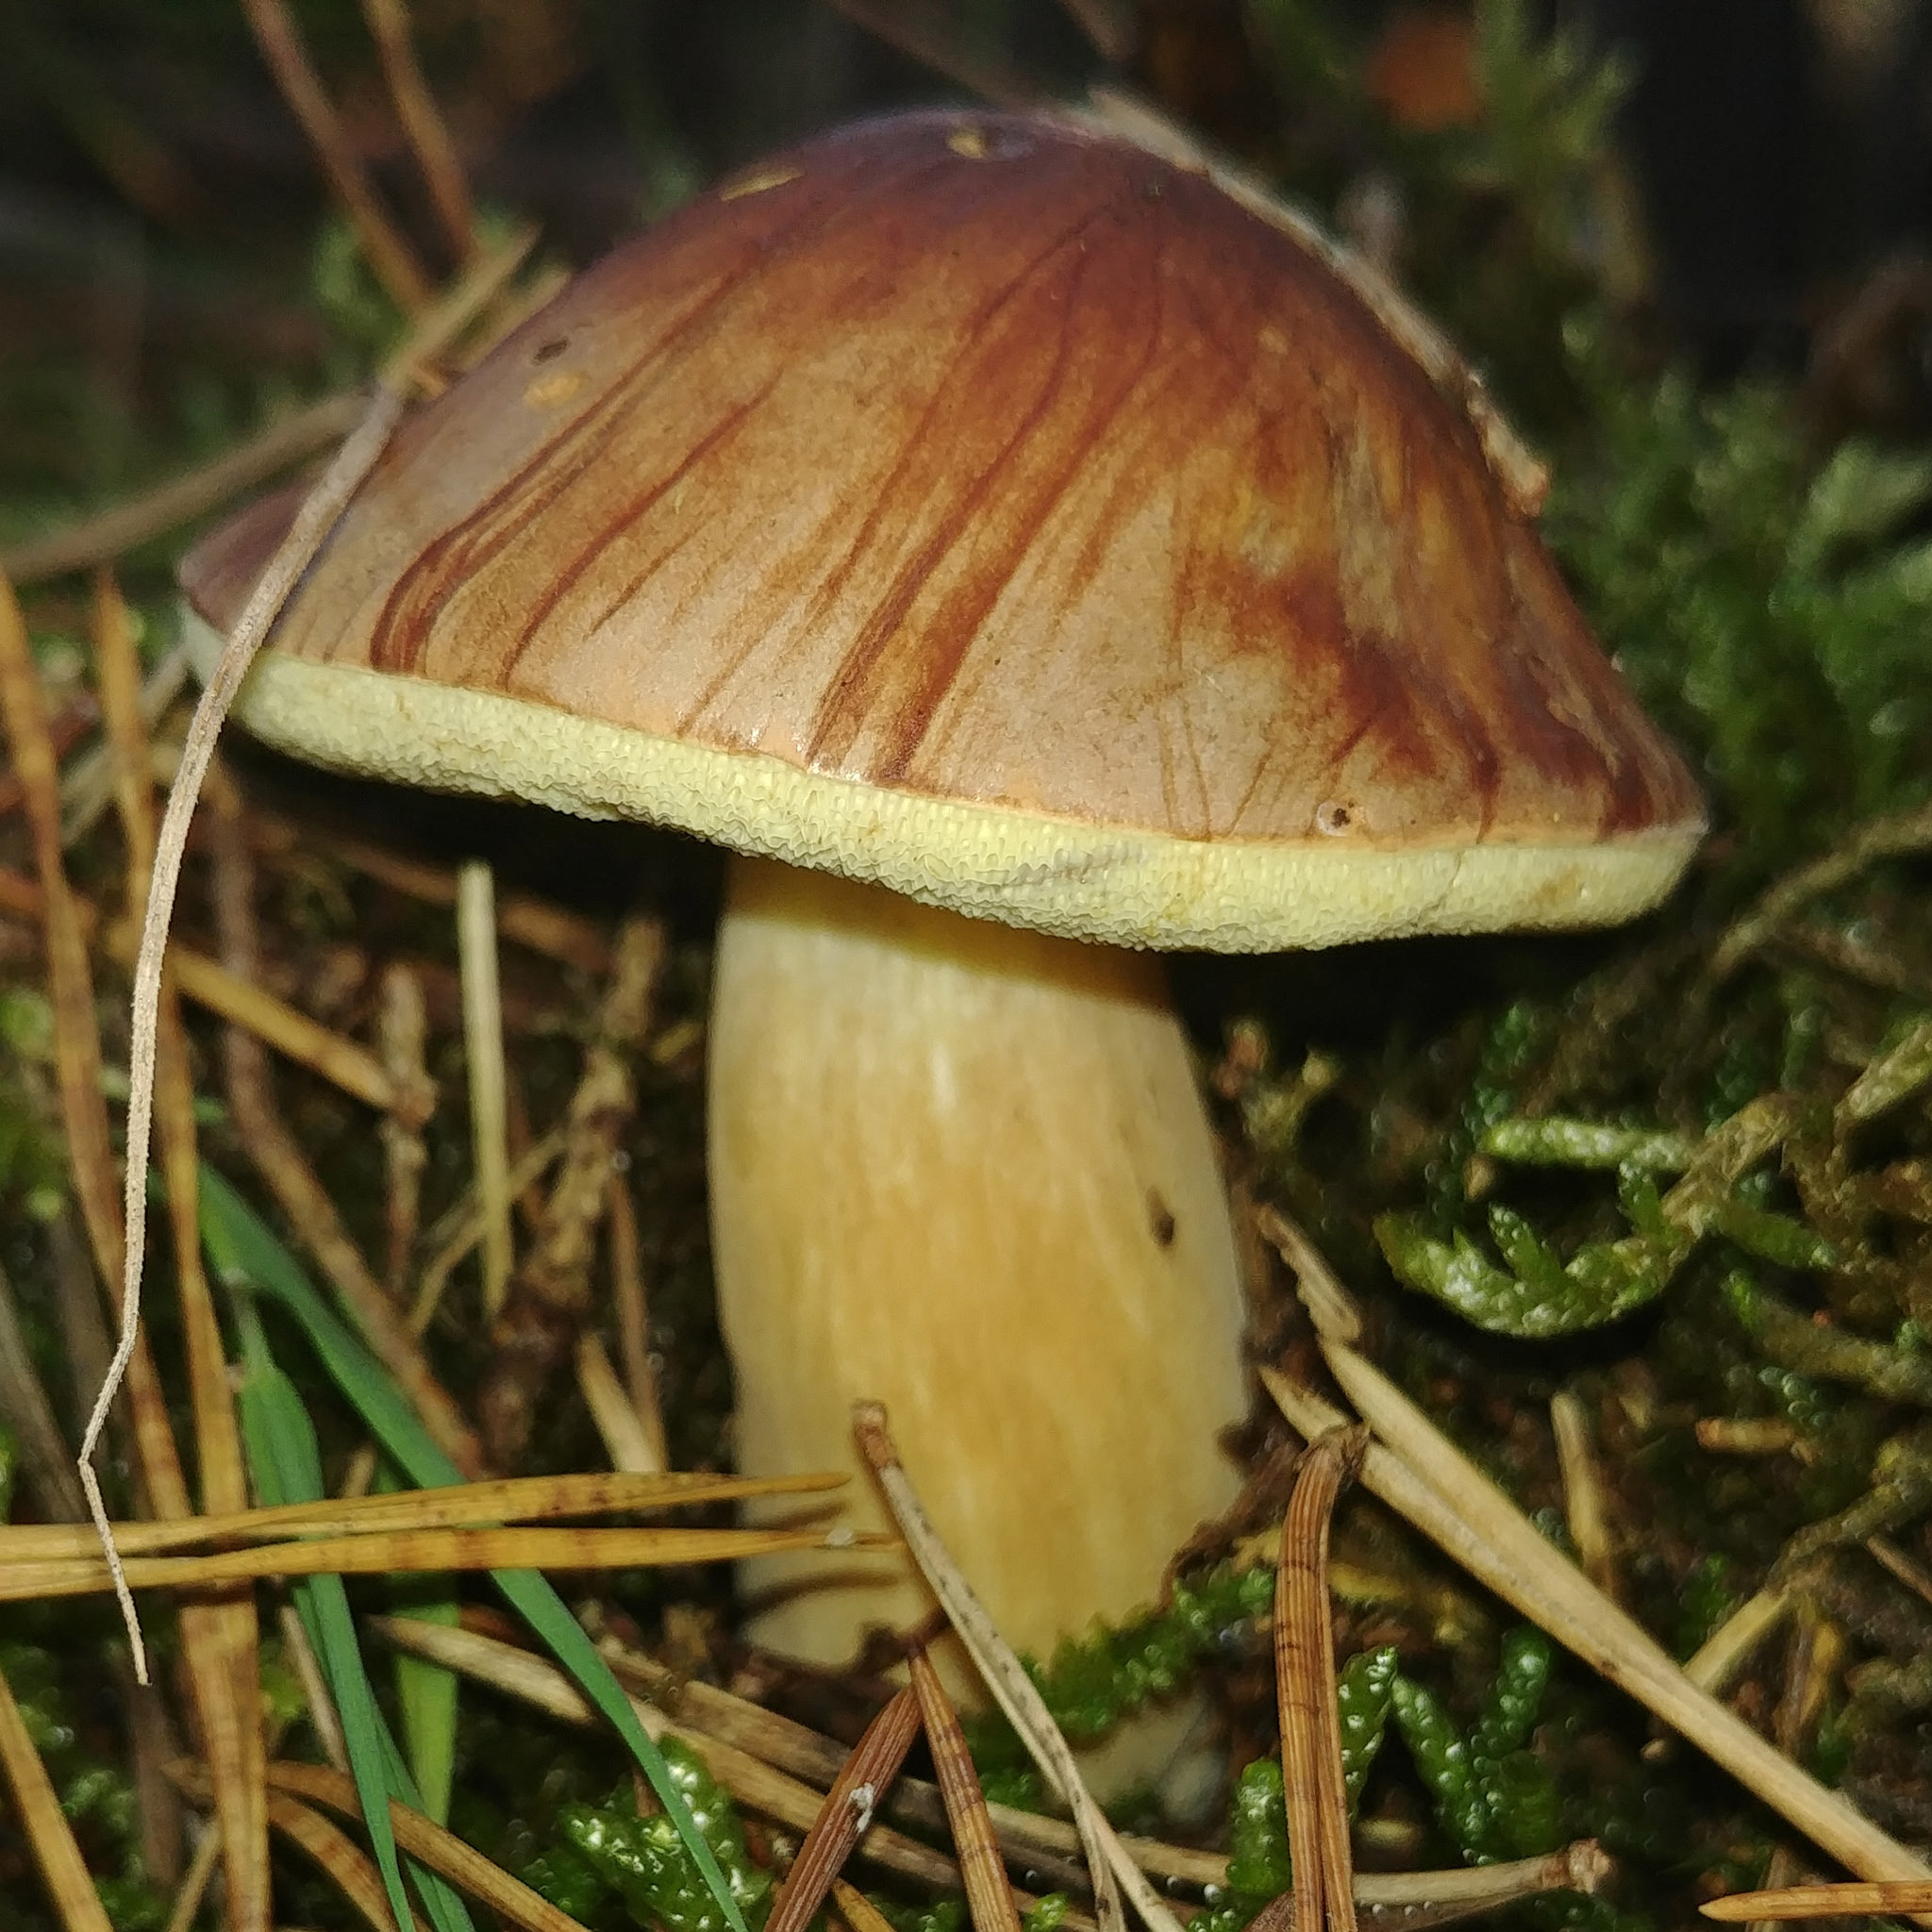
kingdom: Fungi
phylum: Basidiomycota
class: Agaricomycetes
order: Boletales
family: Boletaceae
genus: Imleria
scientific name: Imleria badia
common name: Bay bolete
